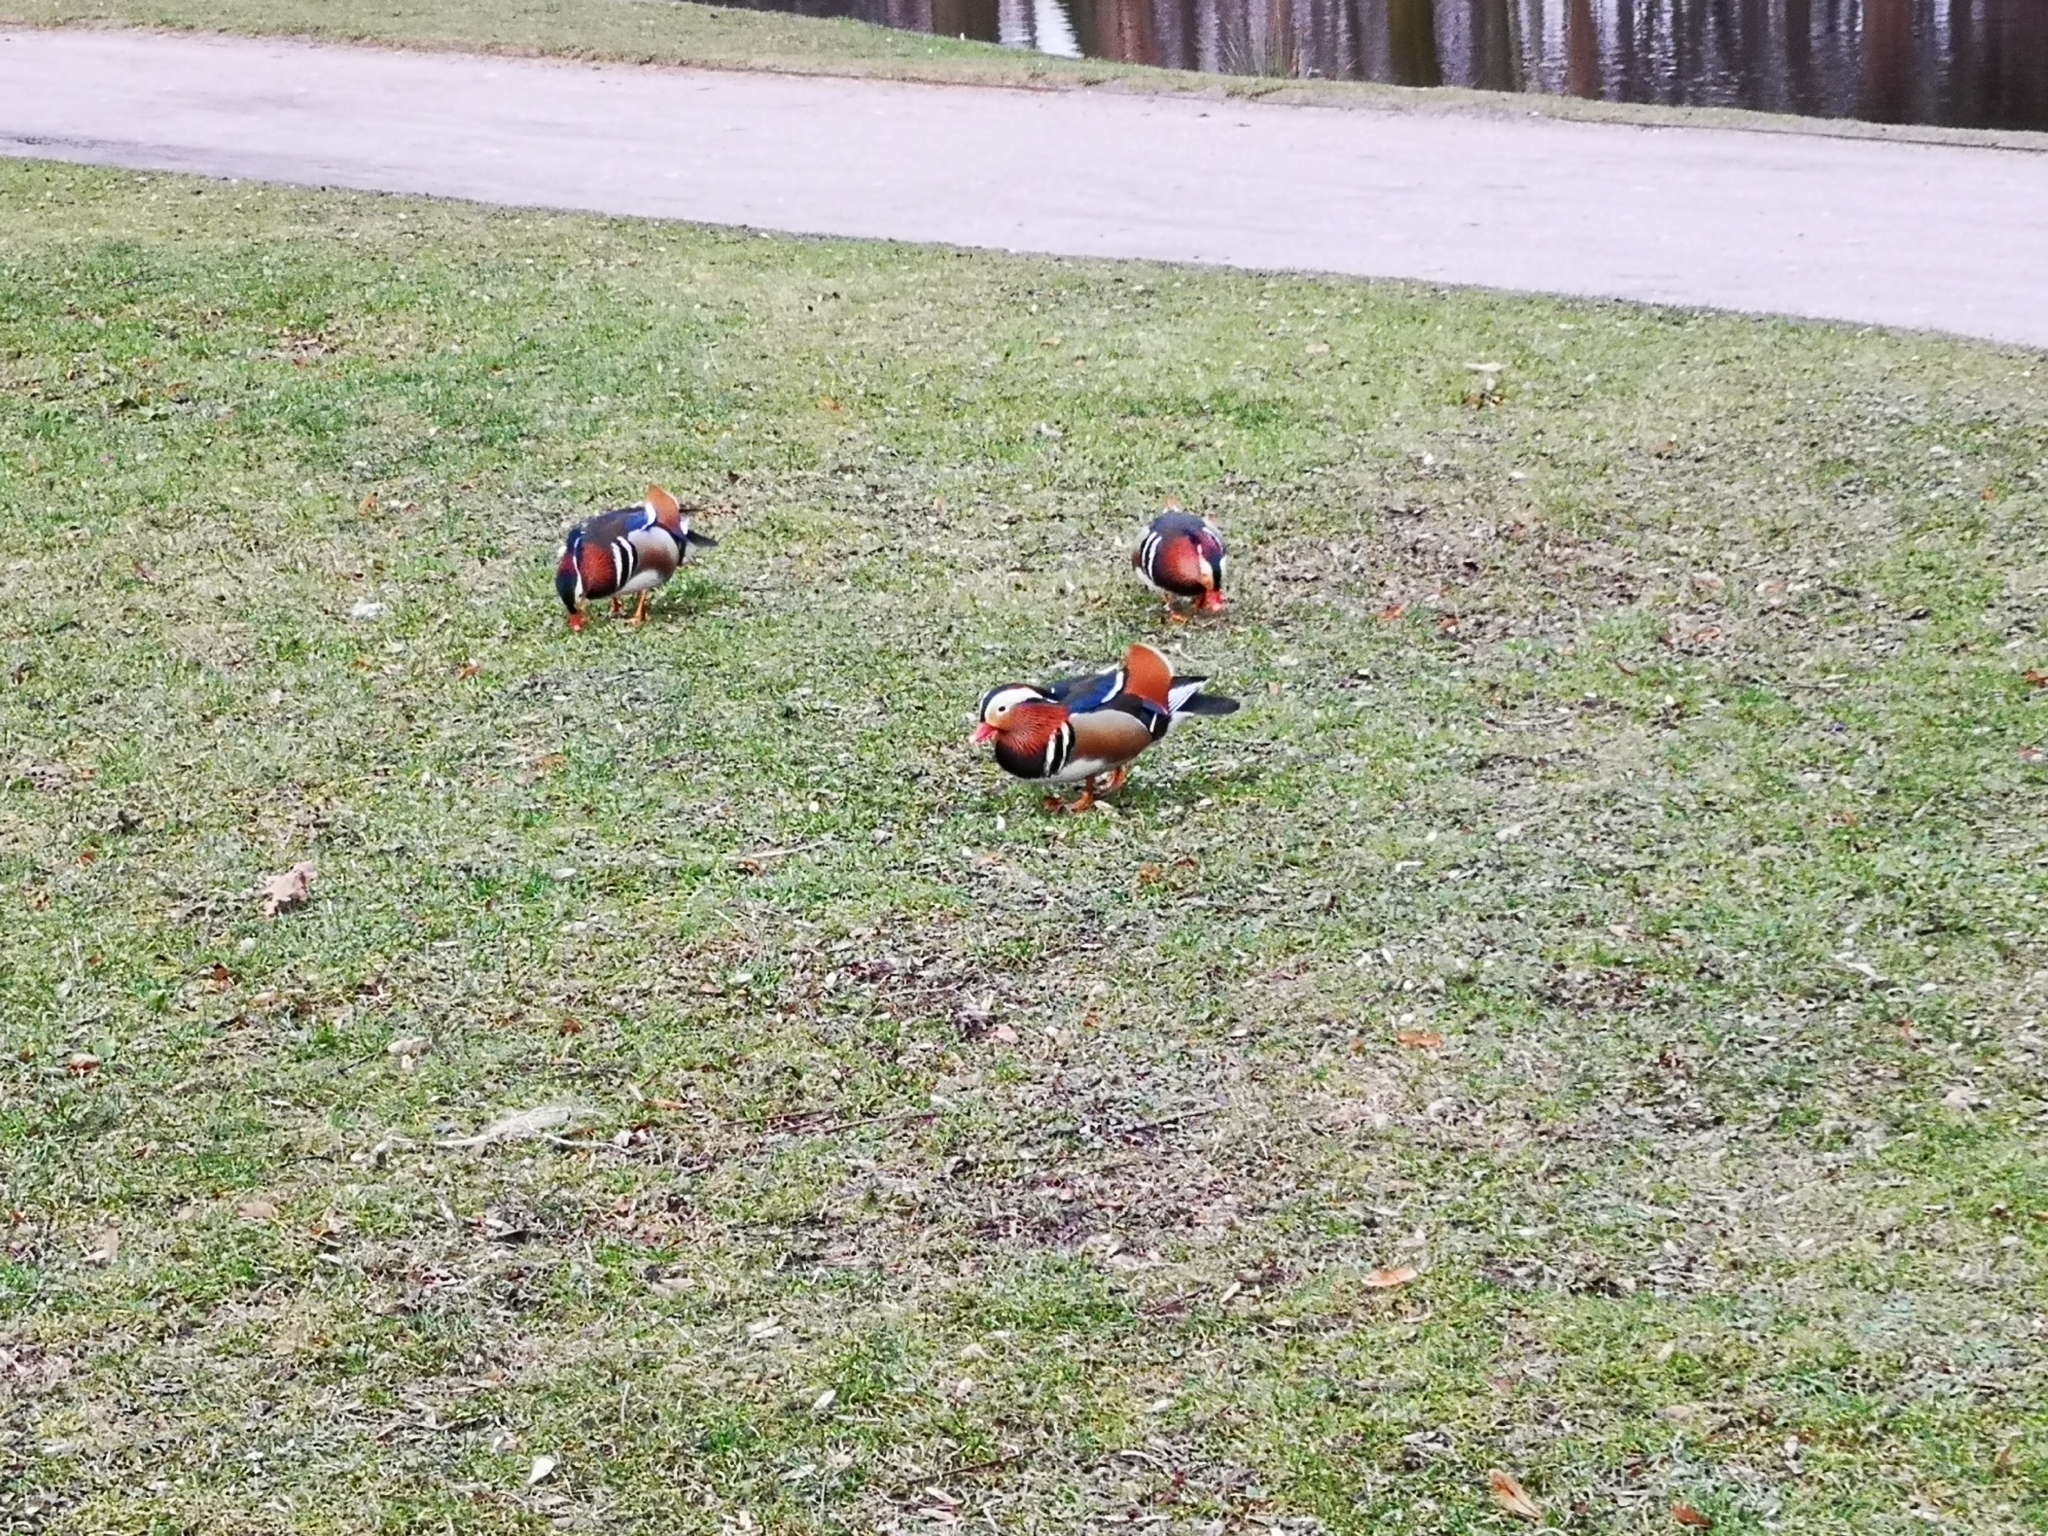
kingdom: Animalia
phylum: Chordata
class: Aves
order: Anseriformes
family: Anatidae
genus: Aix
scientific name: Aix galericulata
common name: Mandarin duck
